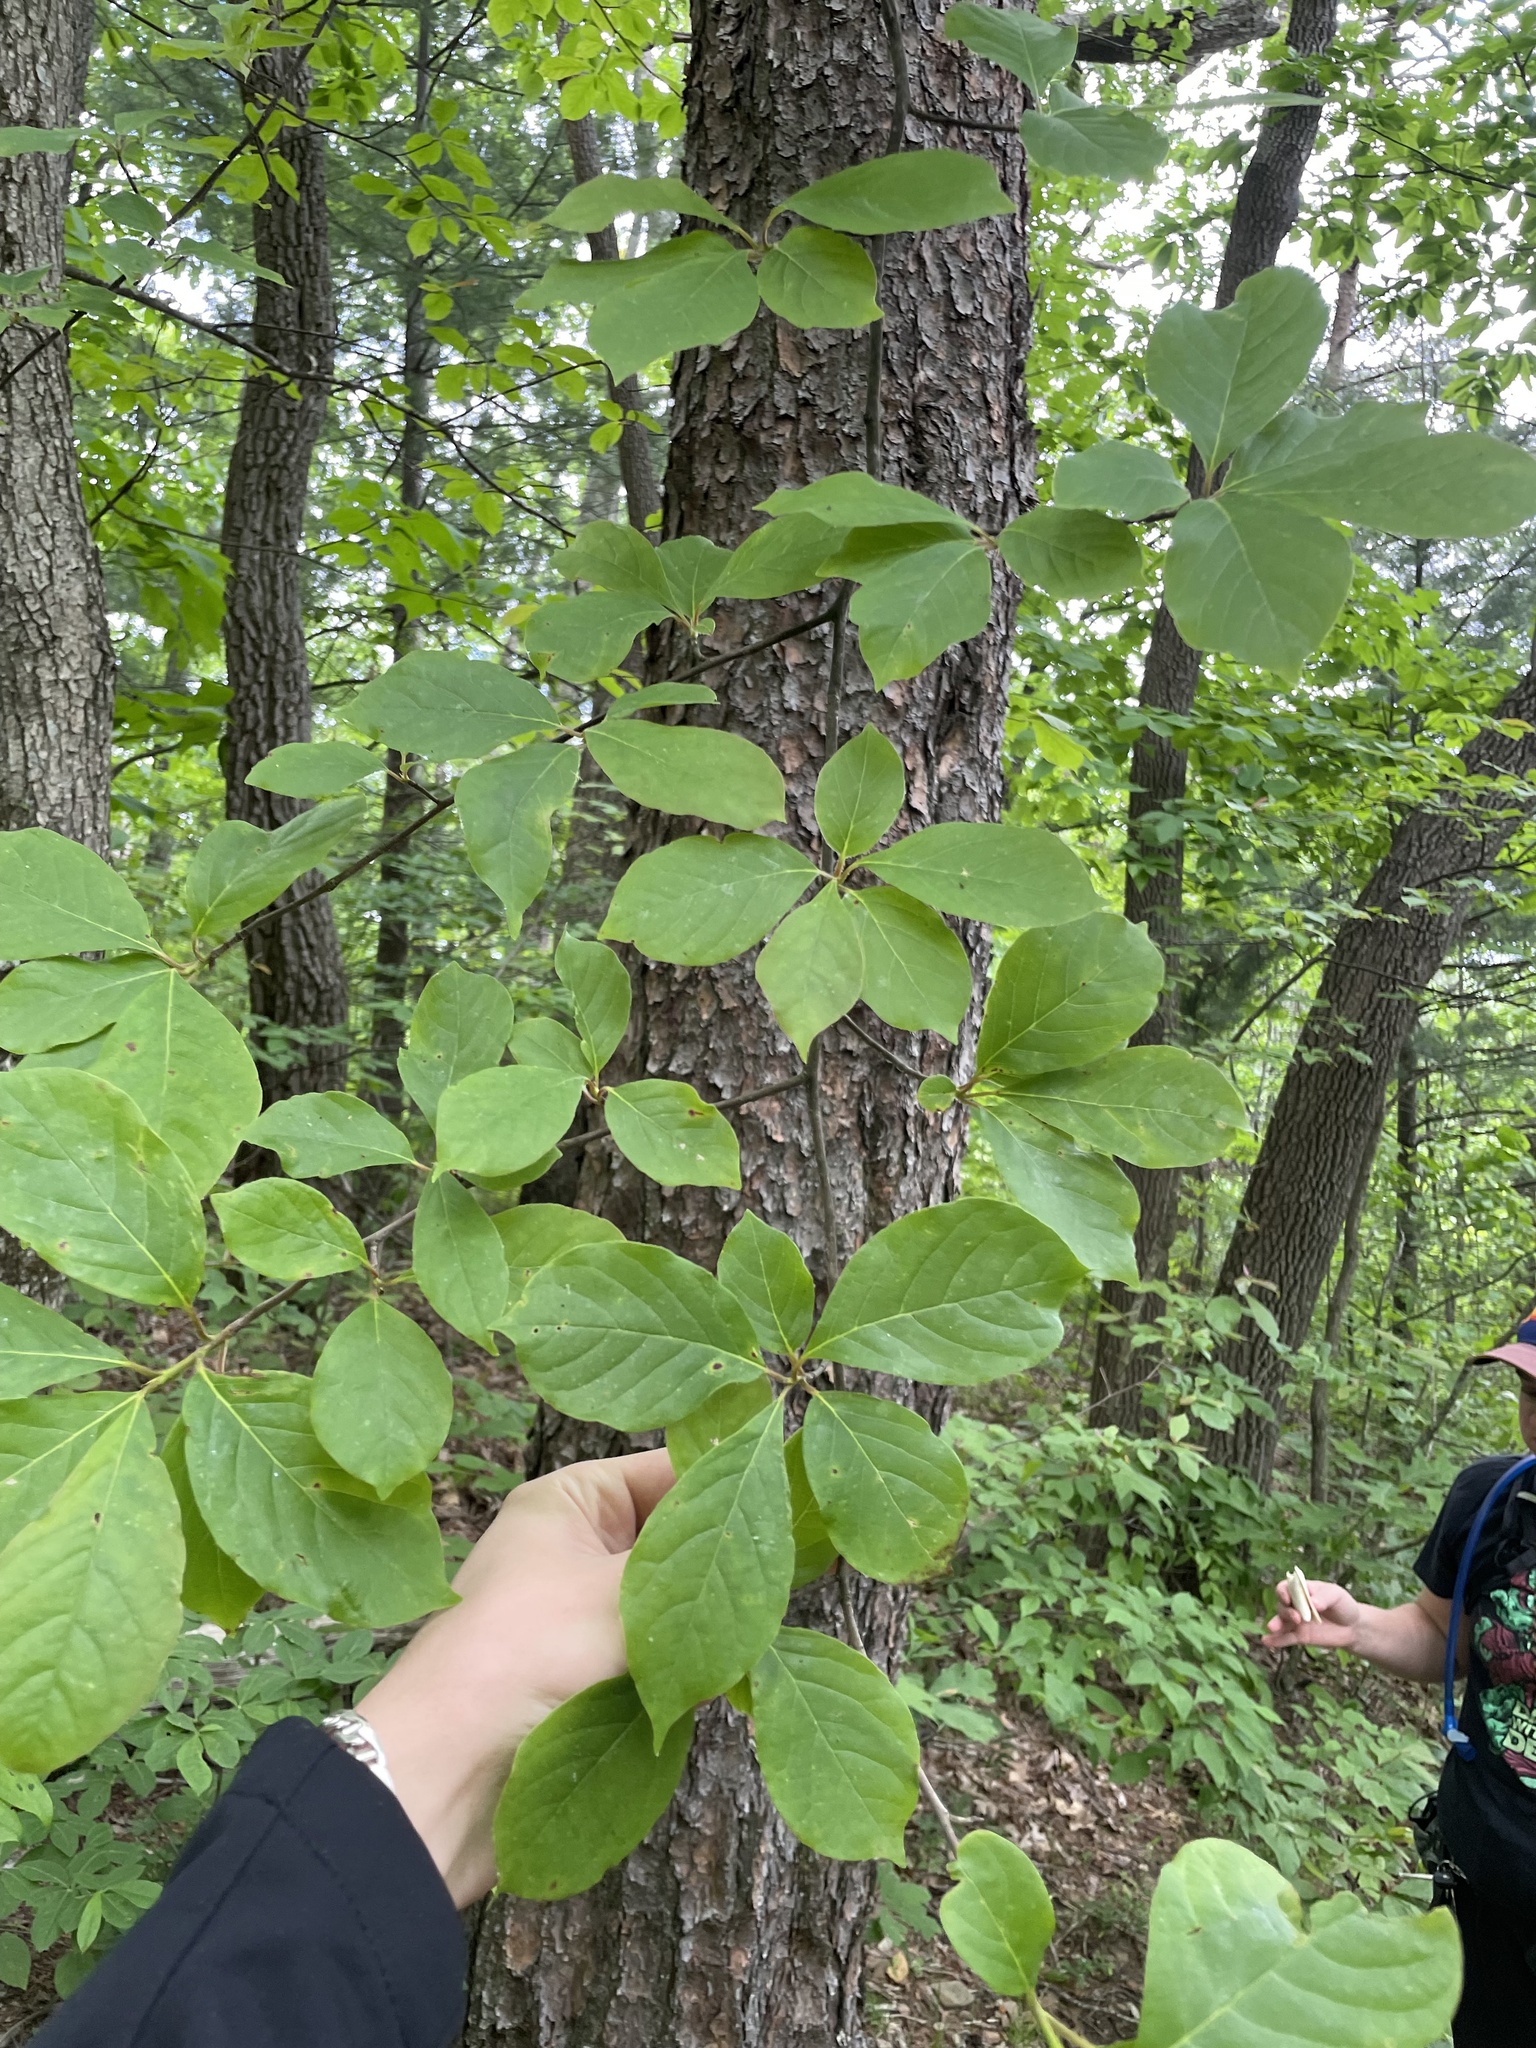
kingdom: Plantae
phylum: Tracheophyta
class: Magnoliopsida
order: Cornales
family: Nyssaceae
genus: Nyssa
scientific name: Nyssa sylvatica
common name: Black tupelo
